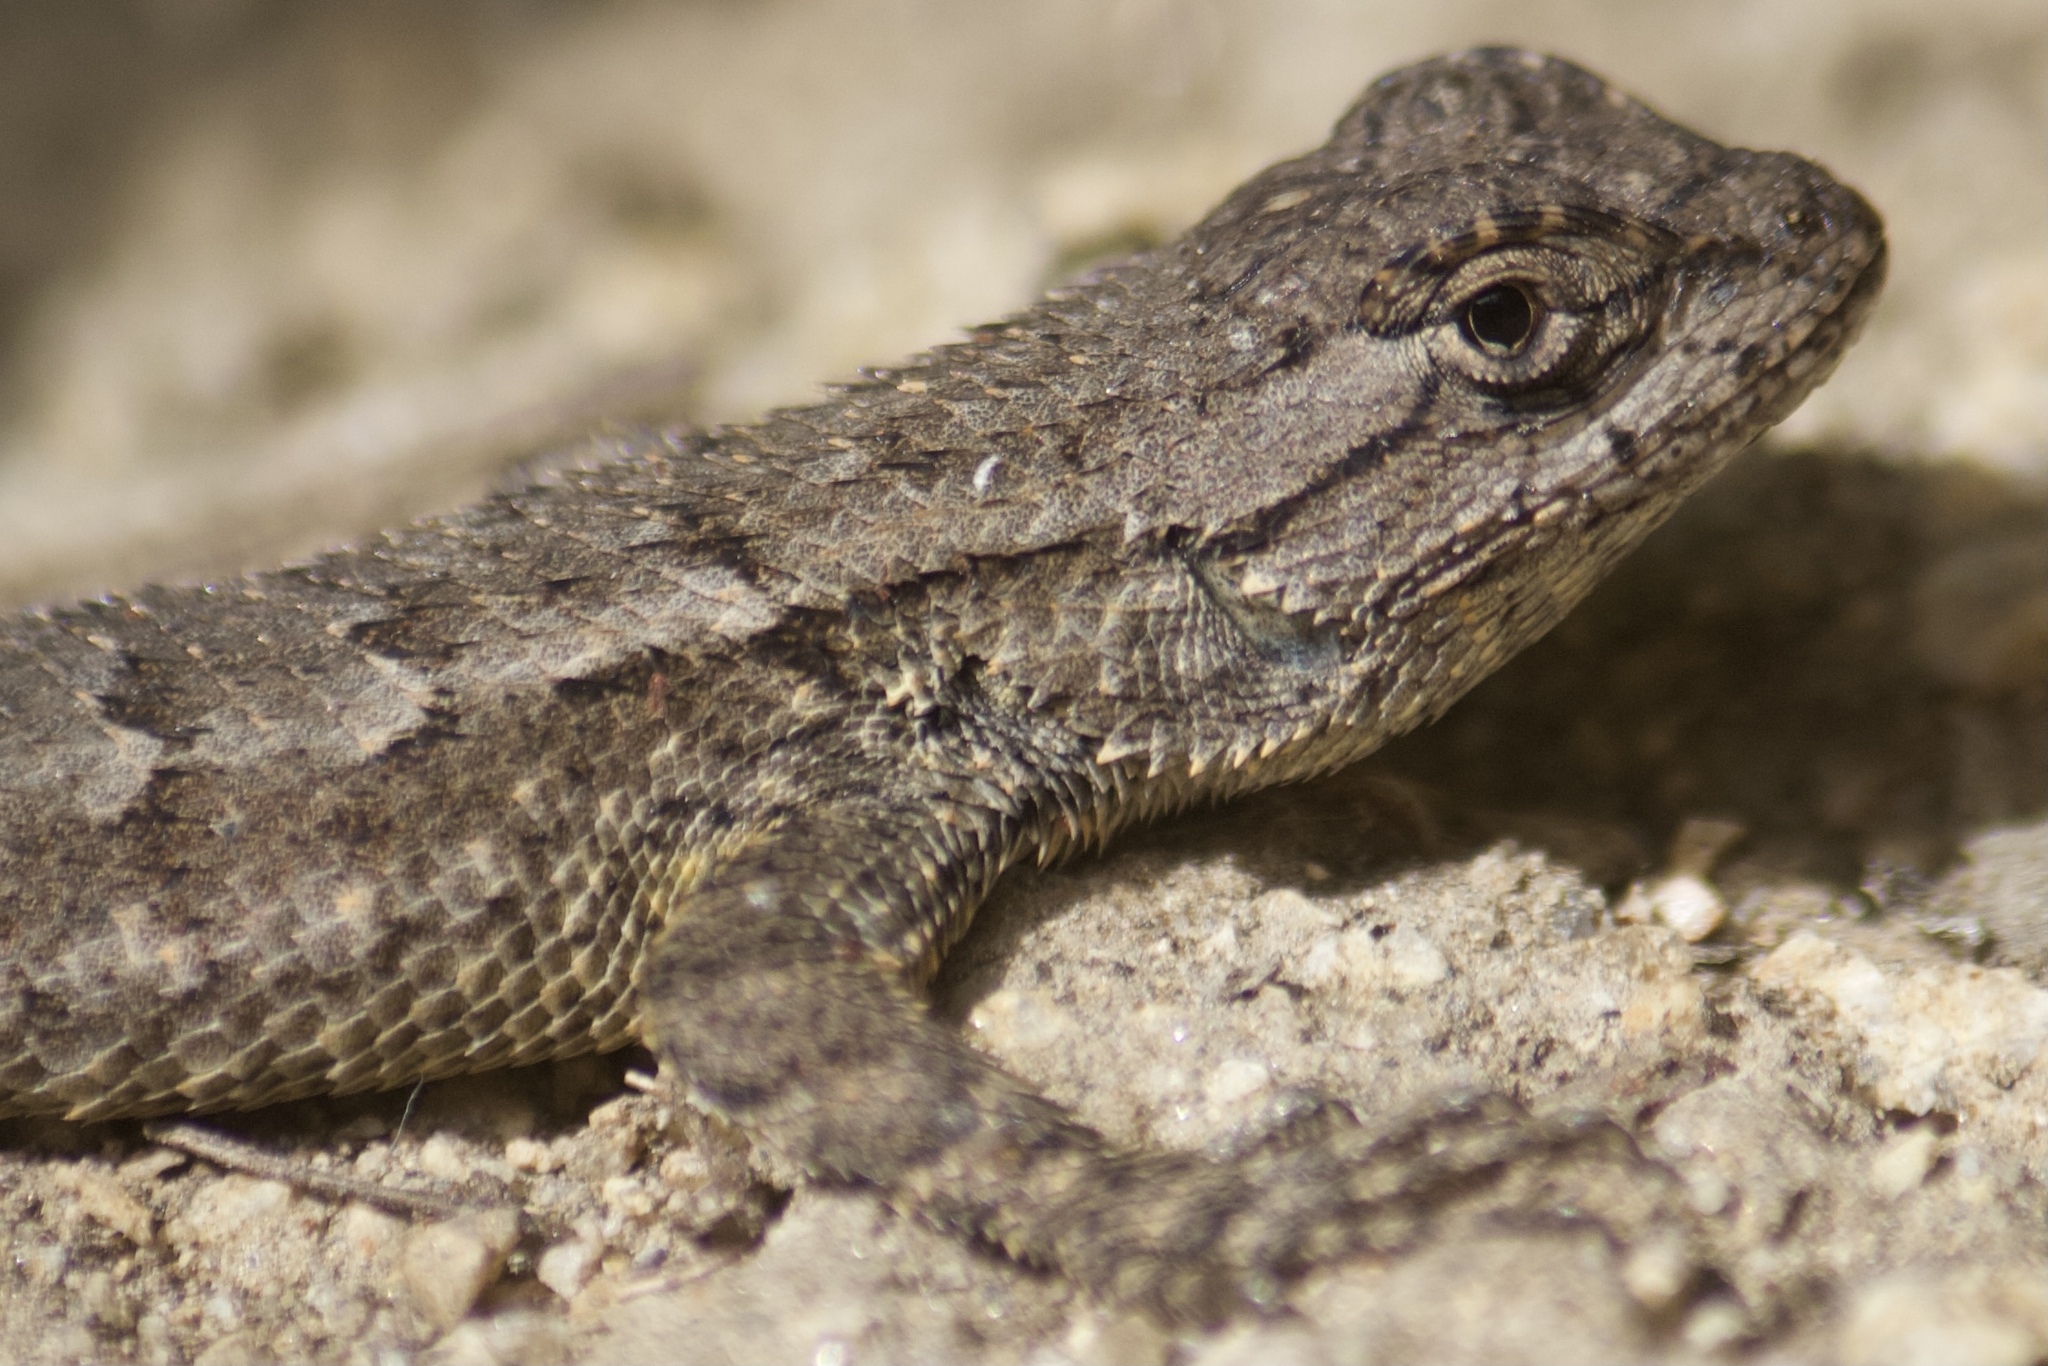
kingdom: Animalia
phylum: Chordata
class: Squamata
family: Phrynosomatidae
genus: Sceloporus
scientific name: Sceloporus occidentalis
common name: Western fence lizard
